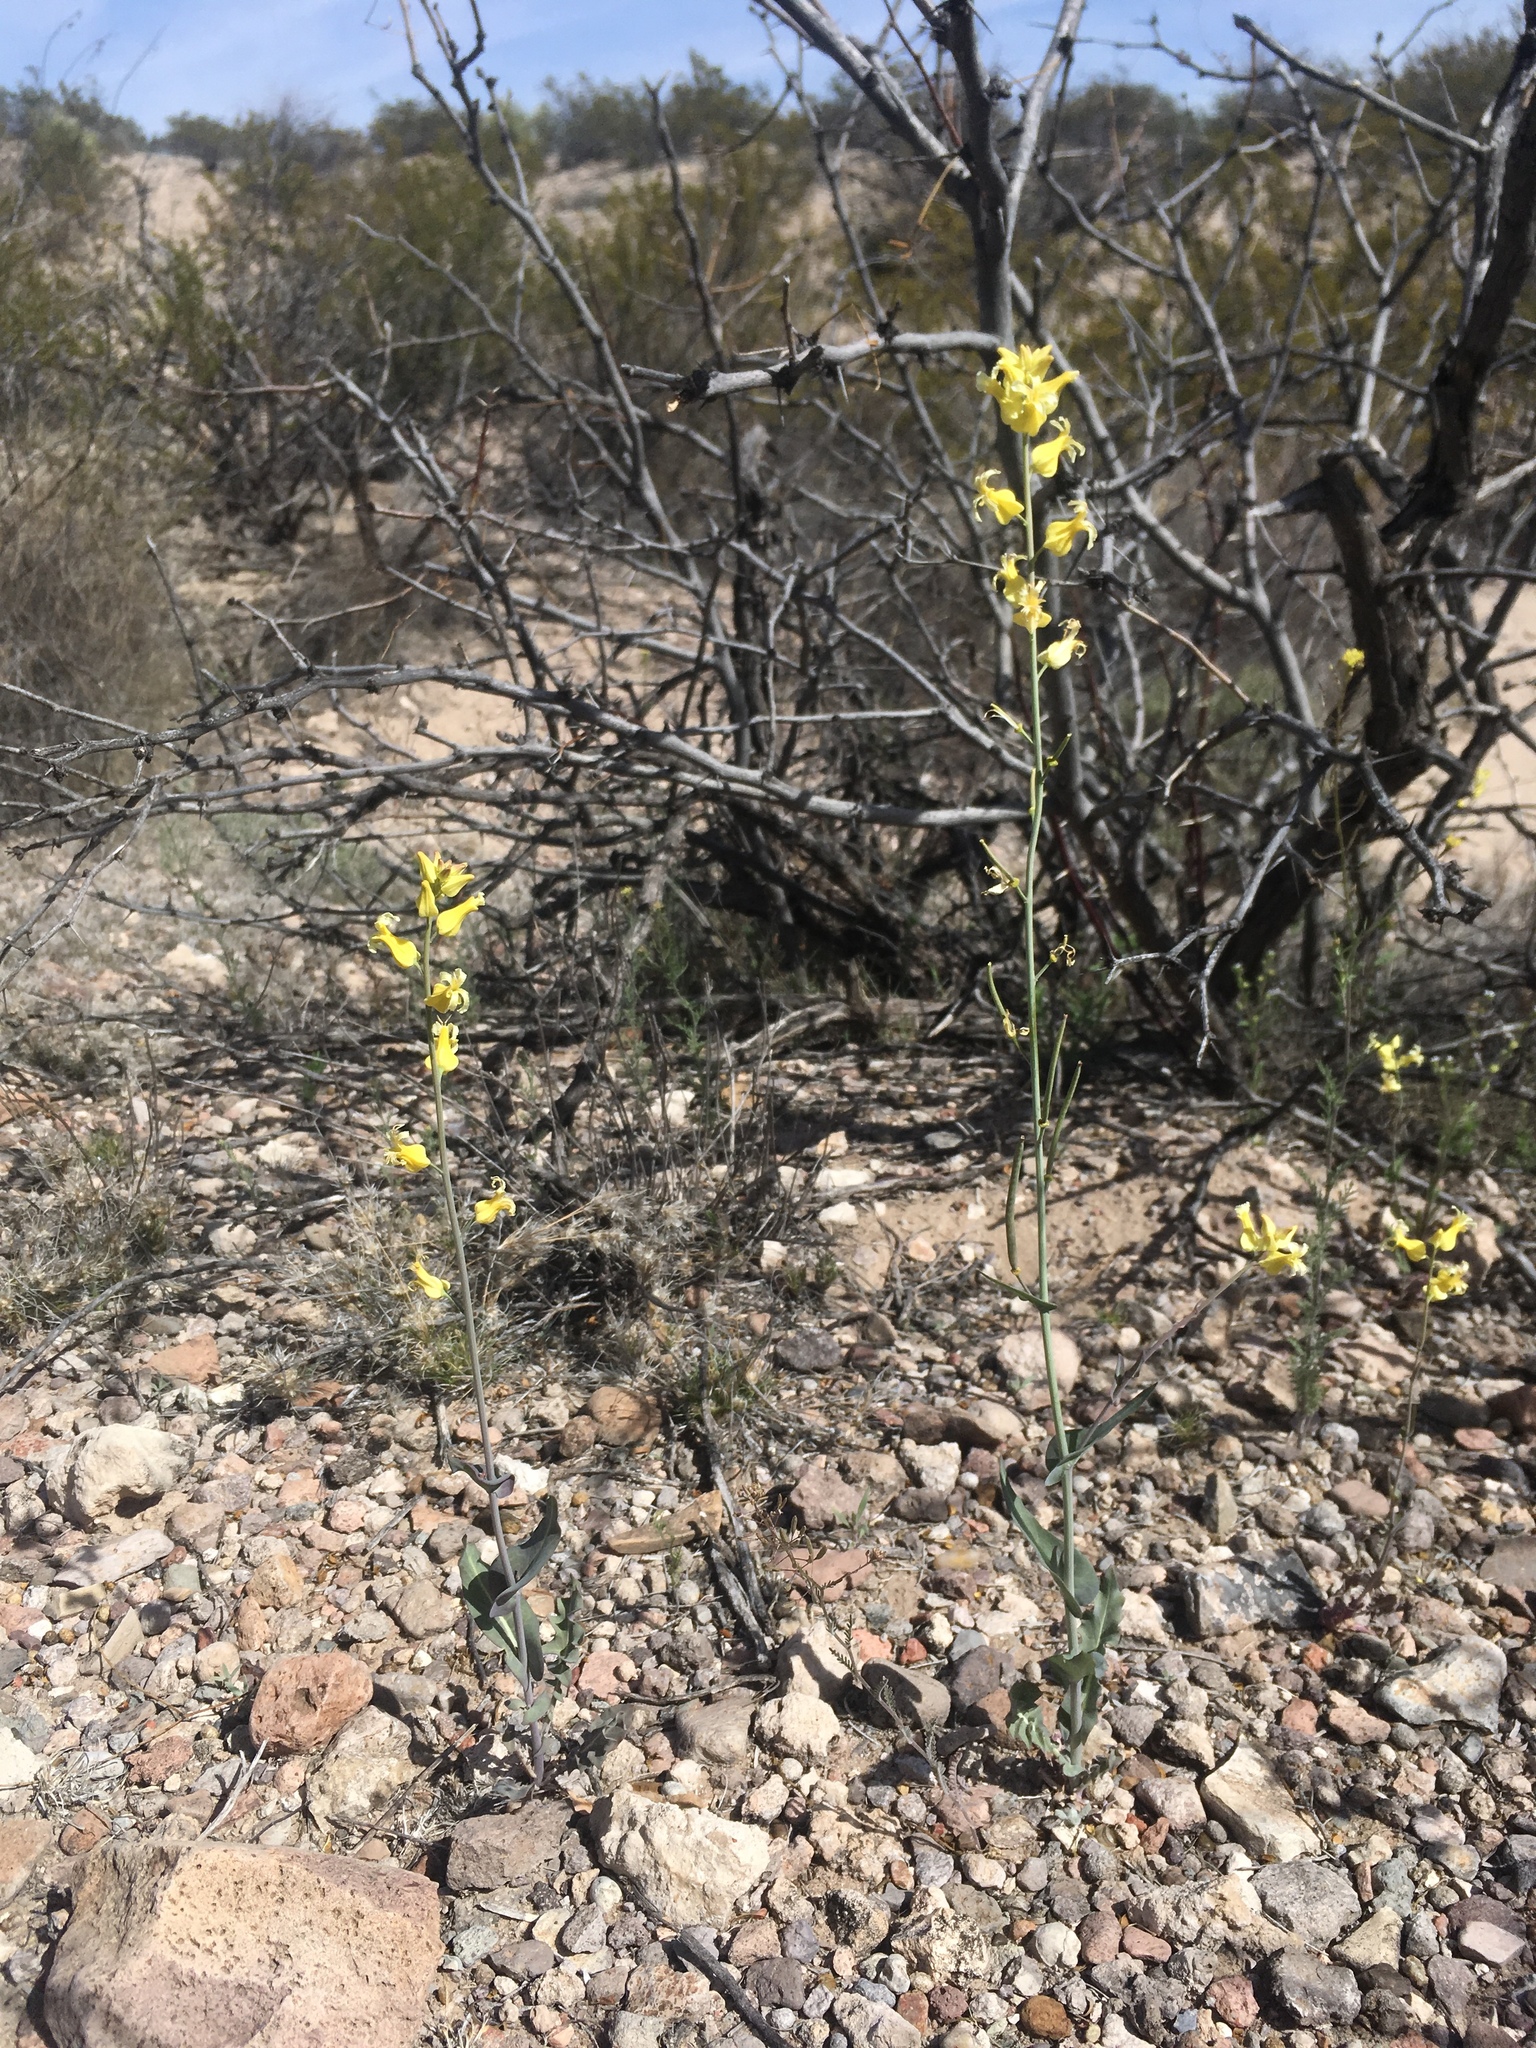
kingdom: Plantae
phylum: Tracheophyta
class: Magnoliopsida
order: Brassicales
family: Brassicaceae
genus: Streptanthus
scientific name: Streptanthus carinatus
